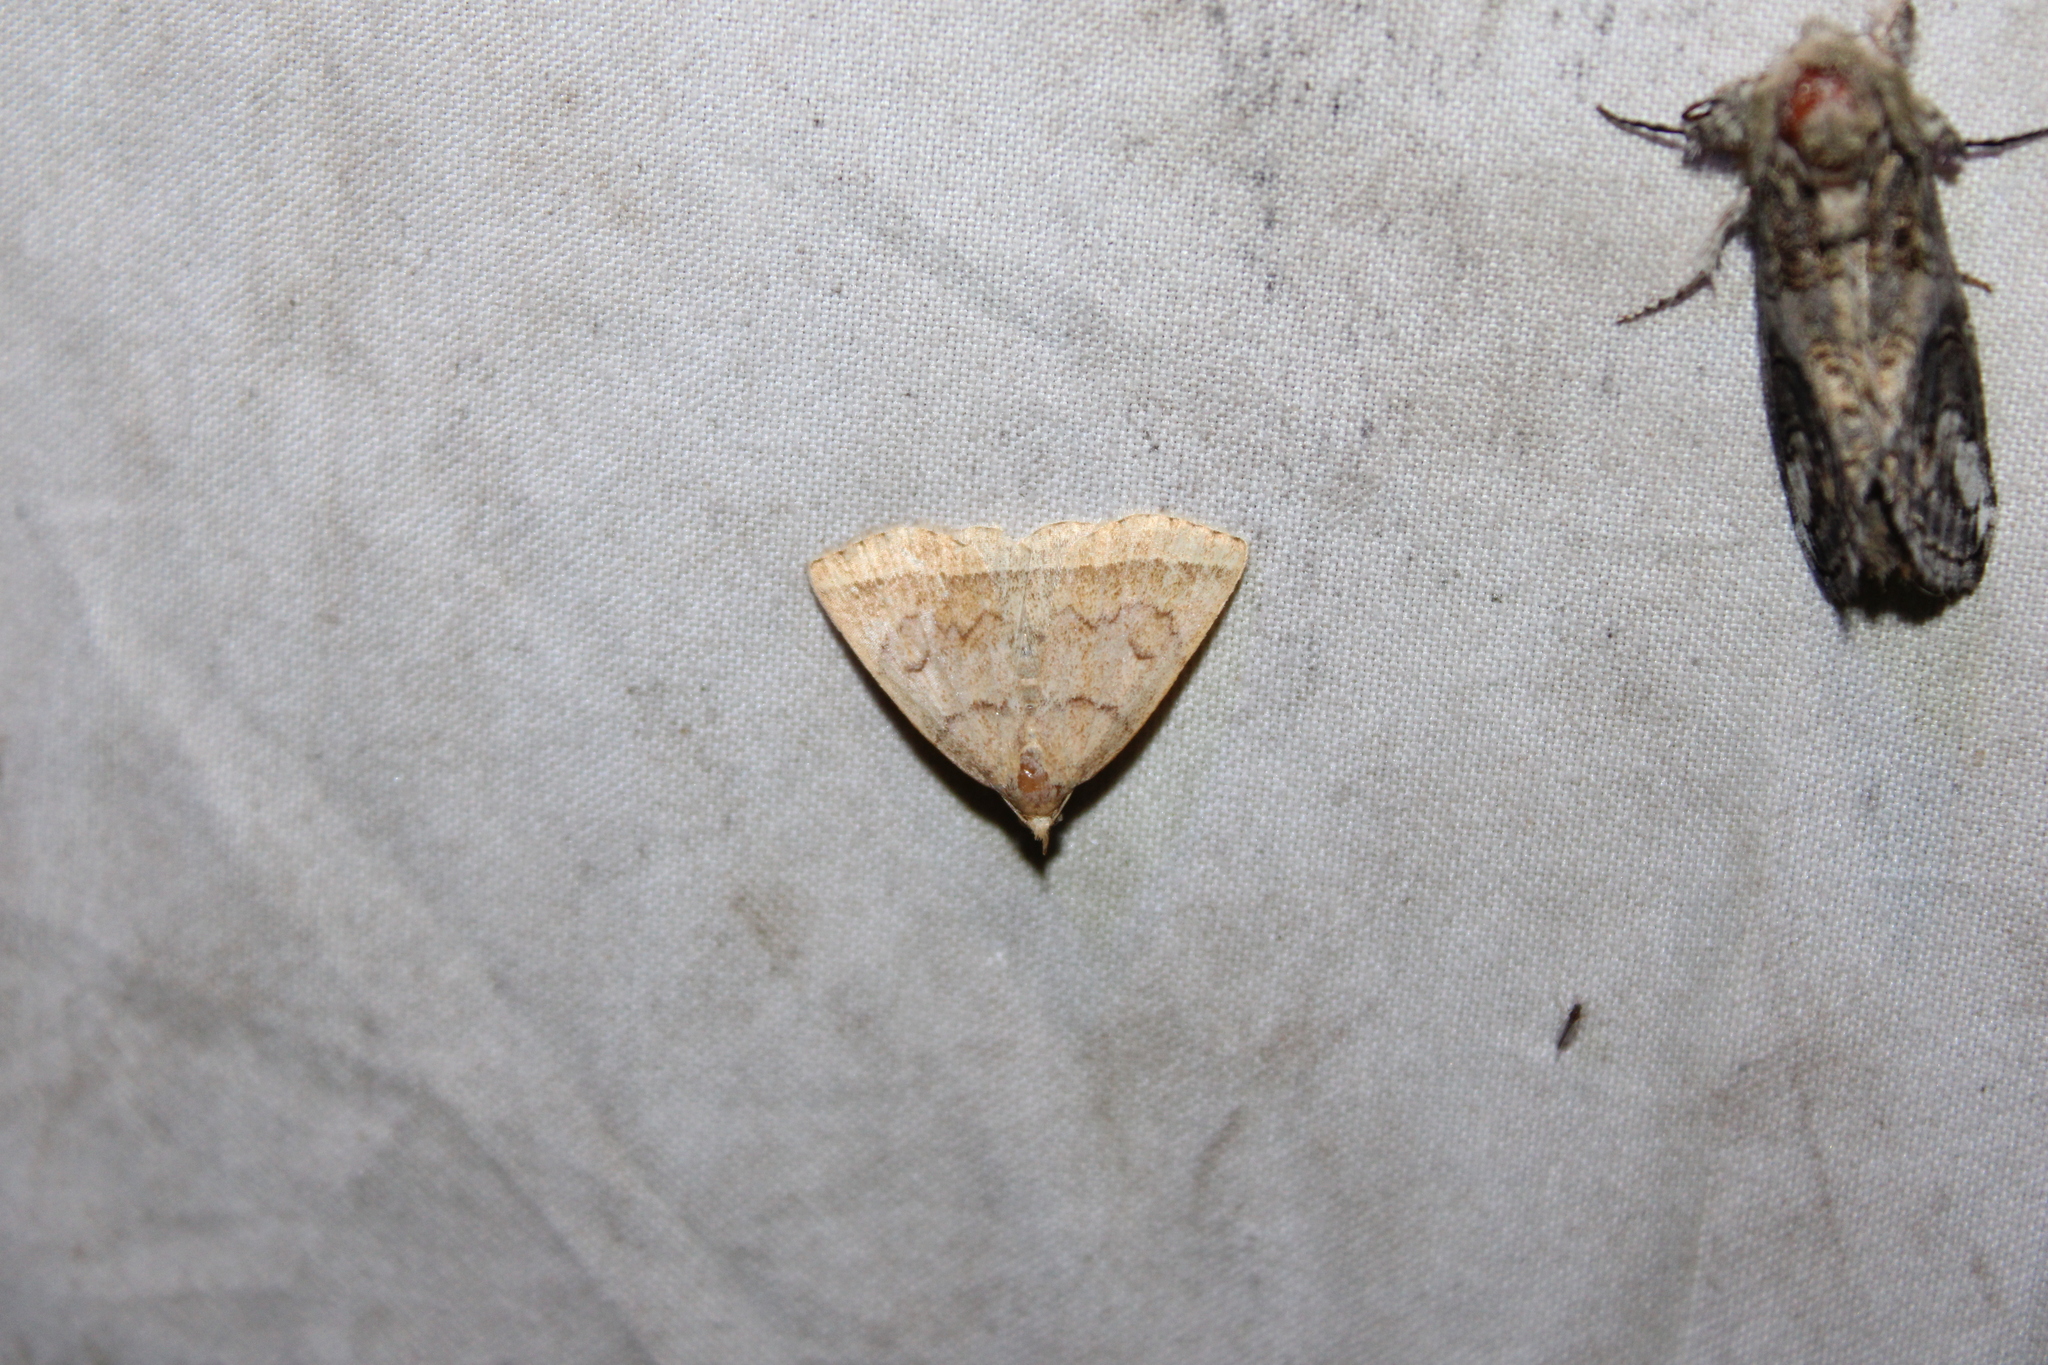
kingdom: Animalia
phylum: Arthropoda
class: Insecta
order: Lepidoptera
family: Erebidae
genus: Zanclognatha
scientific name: Zanclognatha jacchusalis
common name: Yellowish zanclognatha
